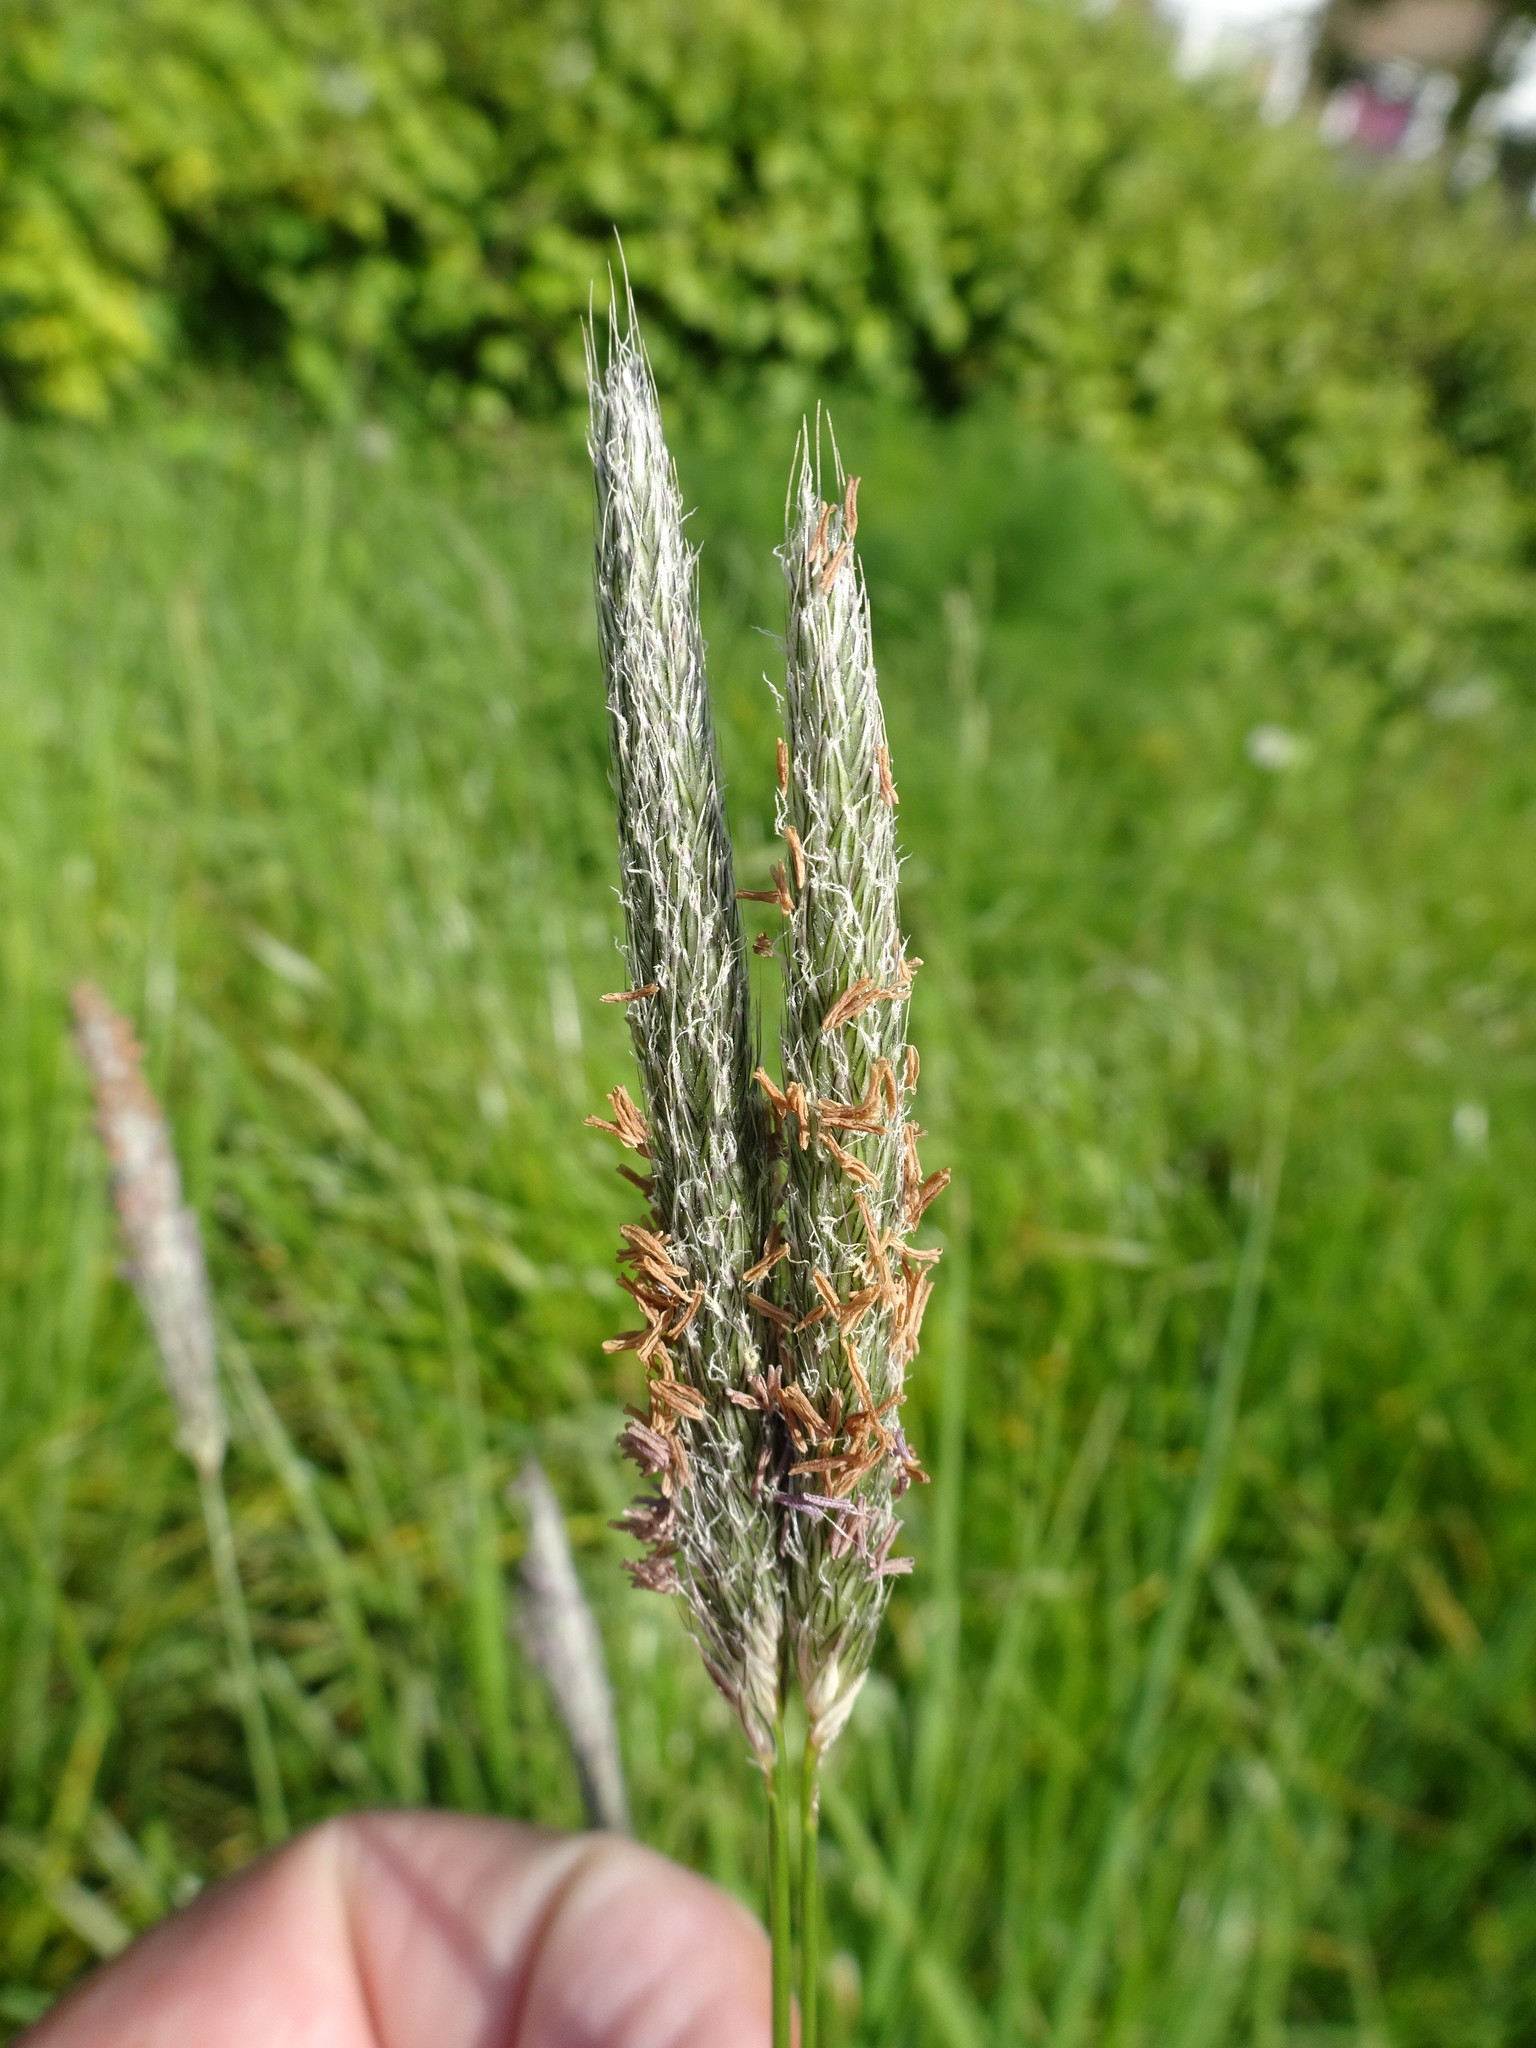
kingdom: Plantae
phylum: Tracheophyta
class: Liliopsida
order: Poales
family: Poaceae
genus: Alopecurus
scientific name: Alopecurus pratensis
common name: Meadow foxtail
